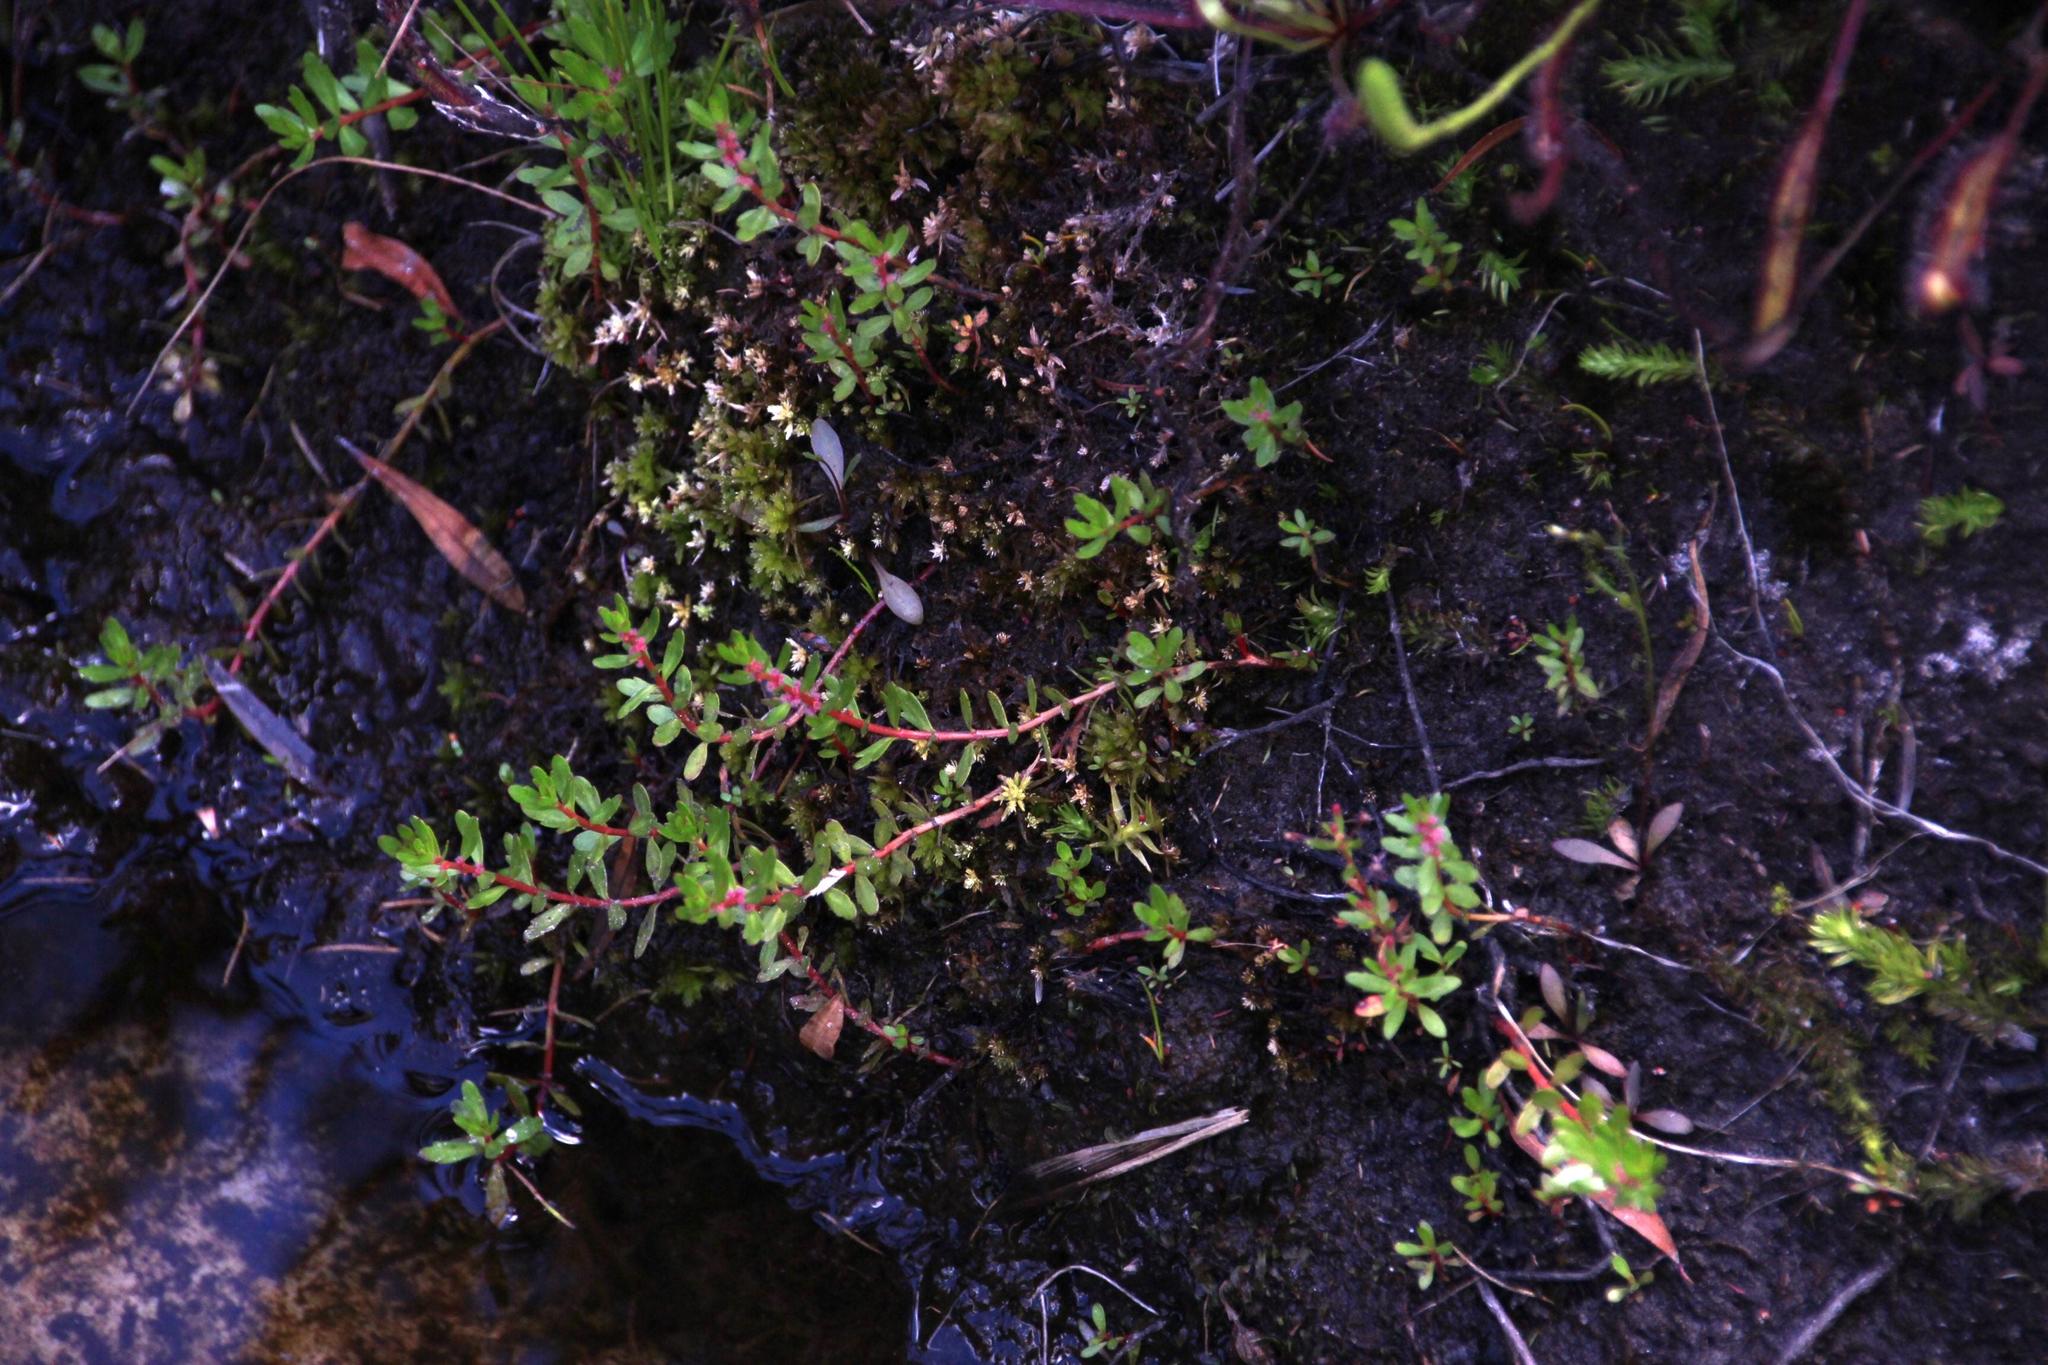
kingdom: Plantae
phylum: Tracheophyta
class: Magnoliopsida
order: Saxifragales
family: Haloragaceae
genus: Laurembergia
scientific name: Laurembergia repens
